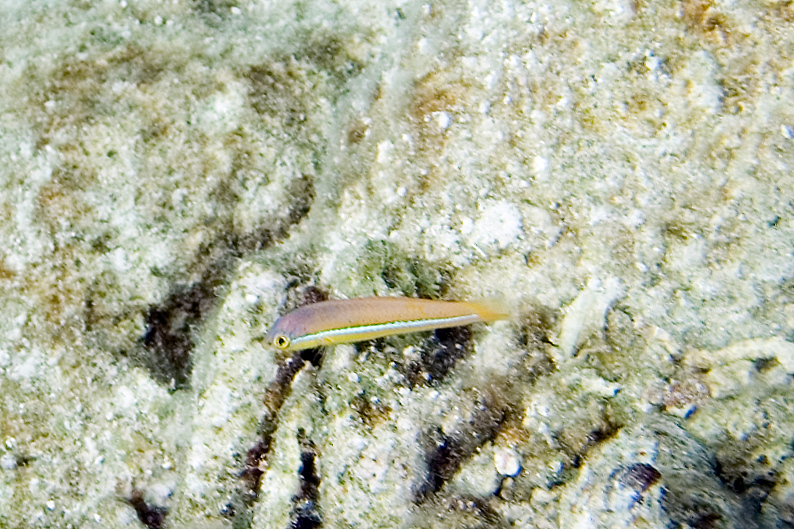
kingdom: Animalia
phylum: Chordata
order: Perciformes
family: Labridae
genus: Halichoeres
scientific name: Halichoeres garnoti
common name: Yellowhead wrasse
